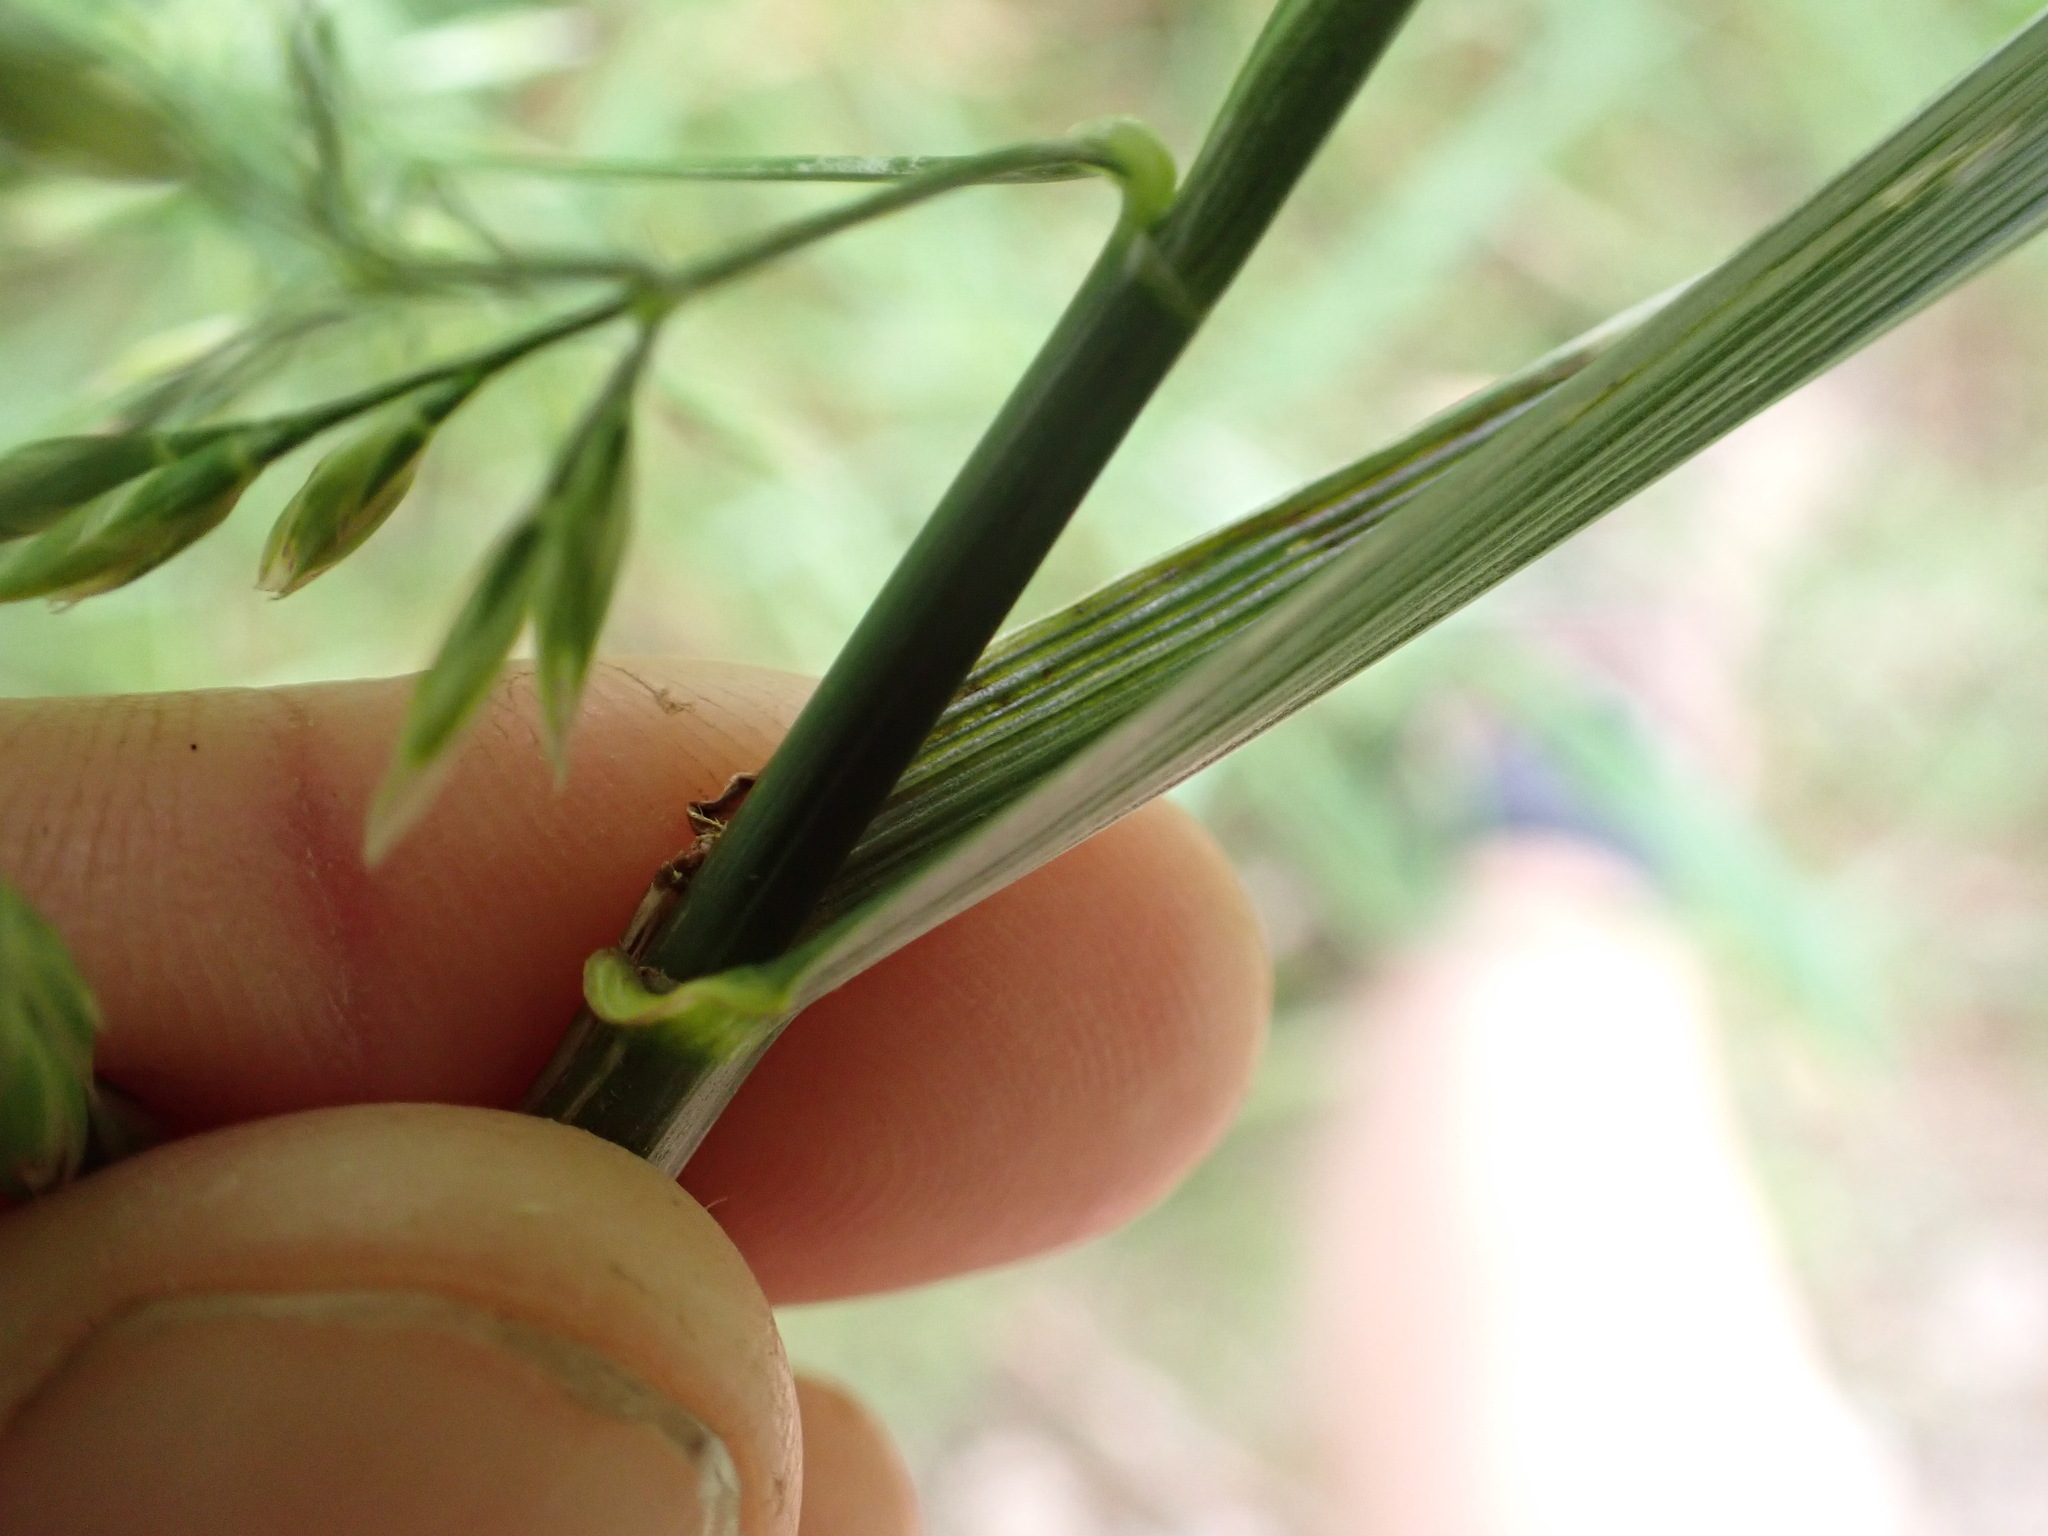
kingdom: Plantae
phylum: Tracheophyta
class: Liliopsida
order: Poales
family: Poaceae
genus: Lolium
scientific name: Lolium arundinaceum
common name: Reed fescue
